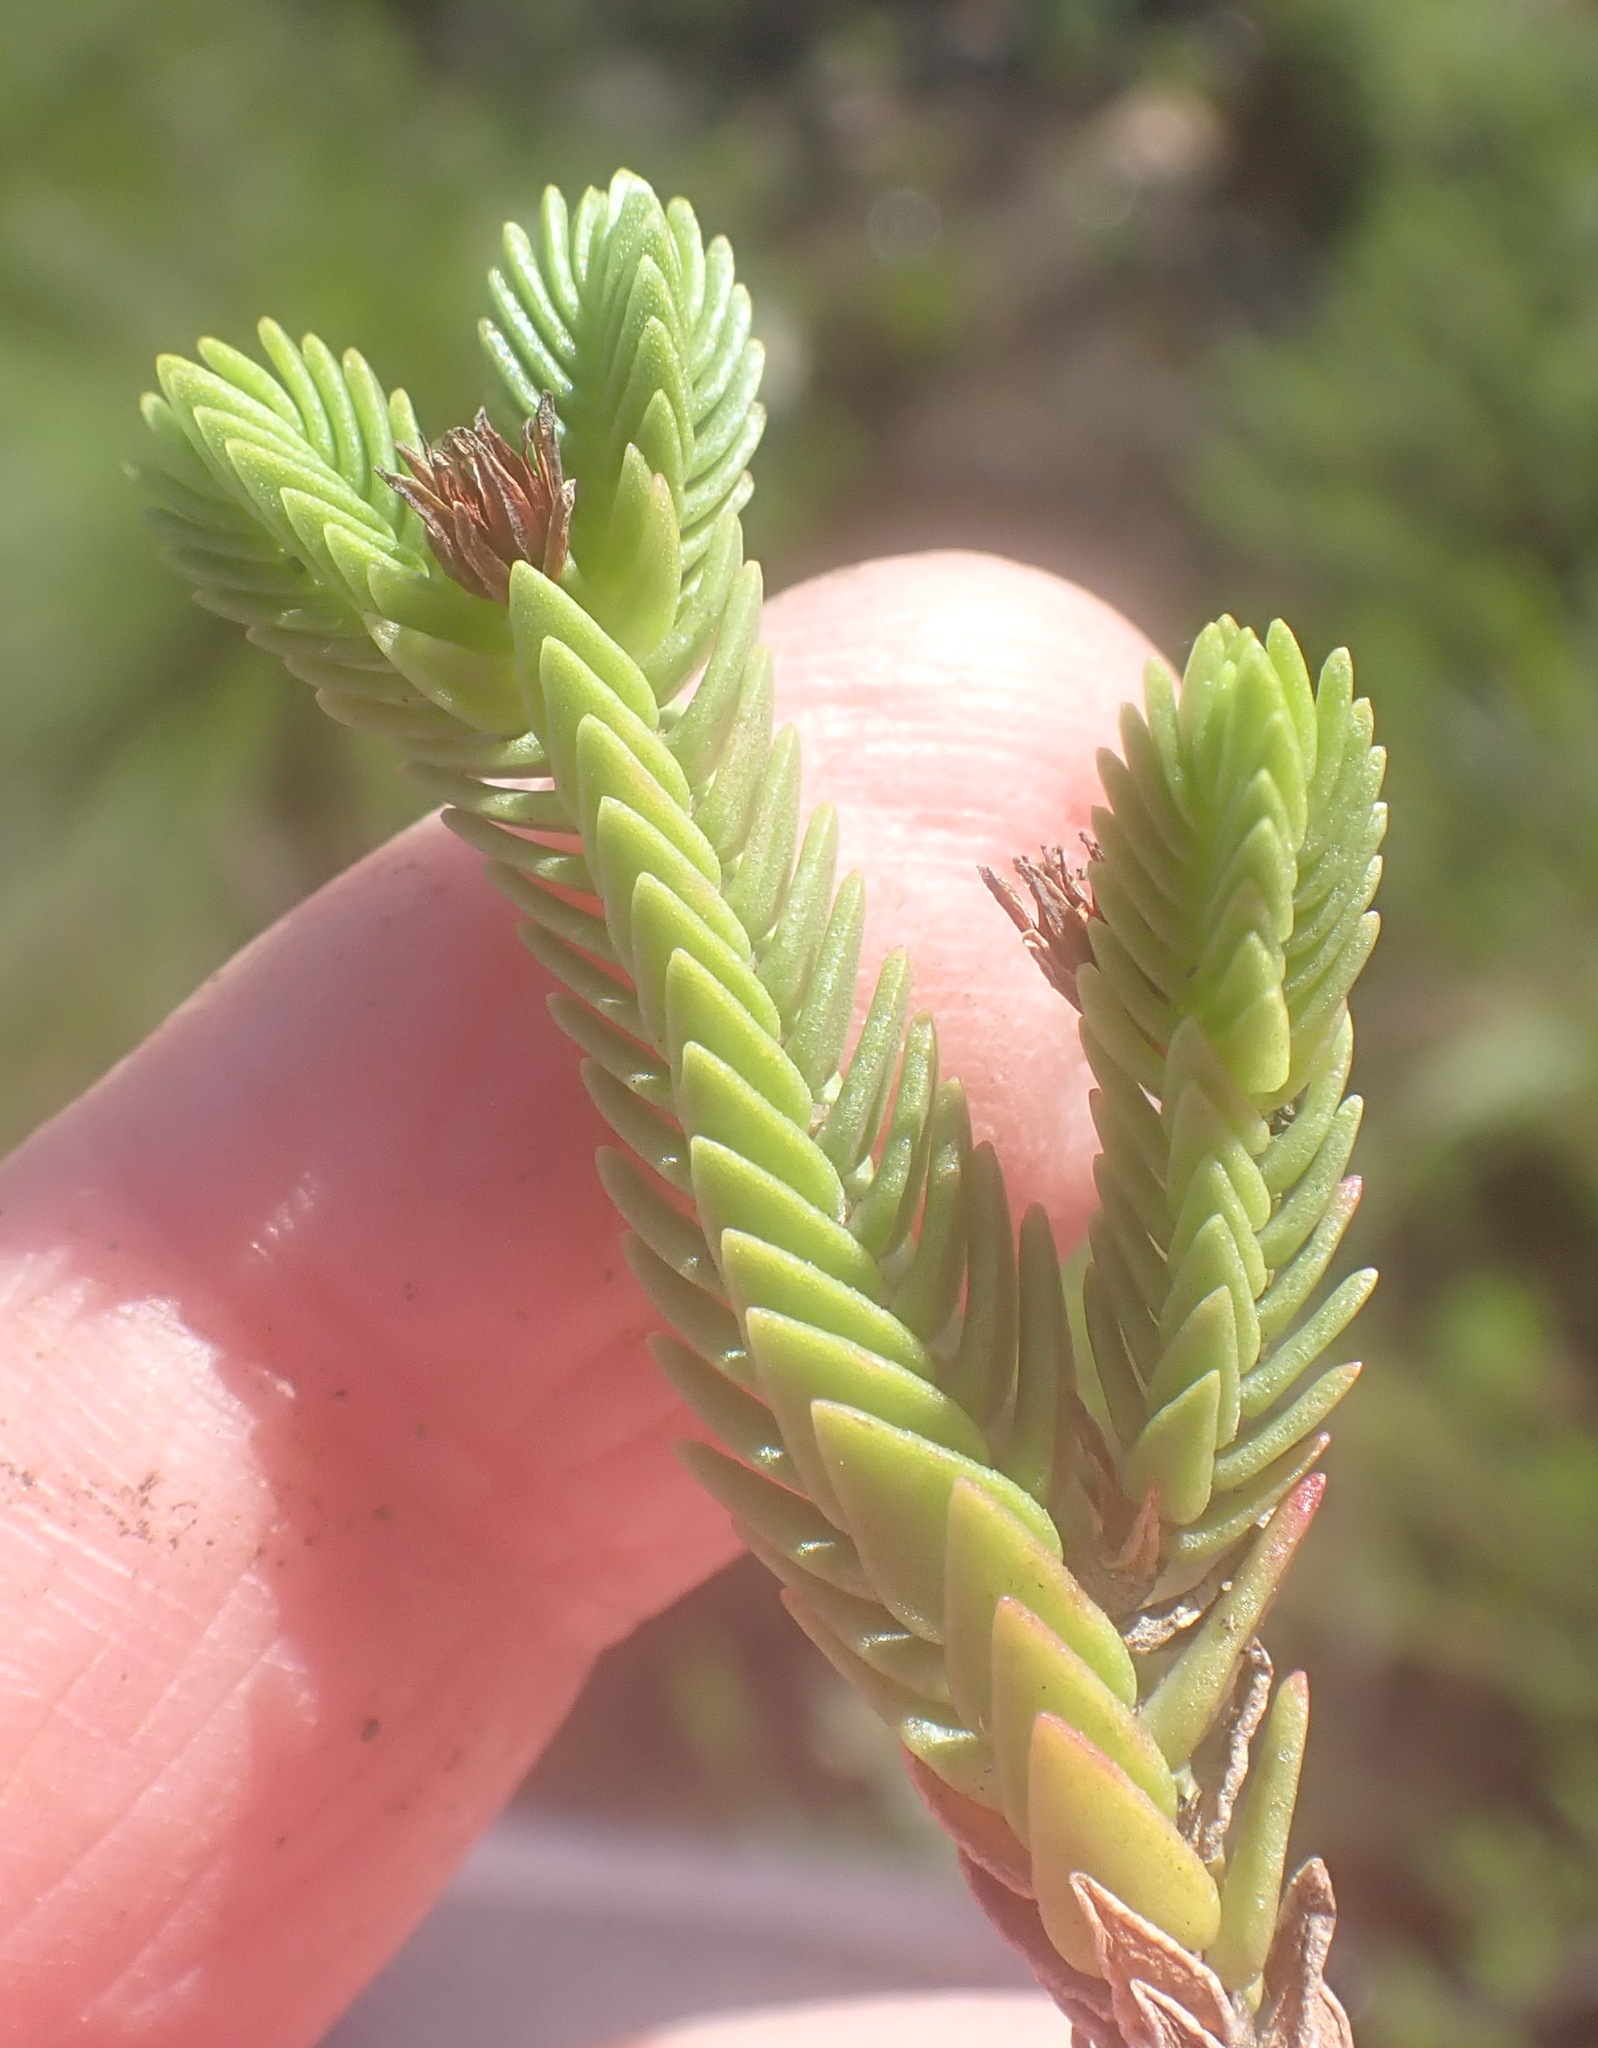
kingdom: Plantae
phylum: Tracheophyta
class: Magnoliopsida
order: Saxifragales
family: Crassulaceae
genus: Crassula
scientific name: Crassula ericoides
